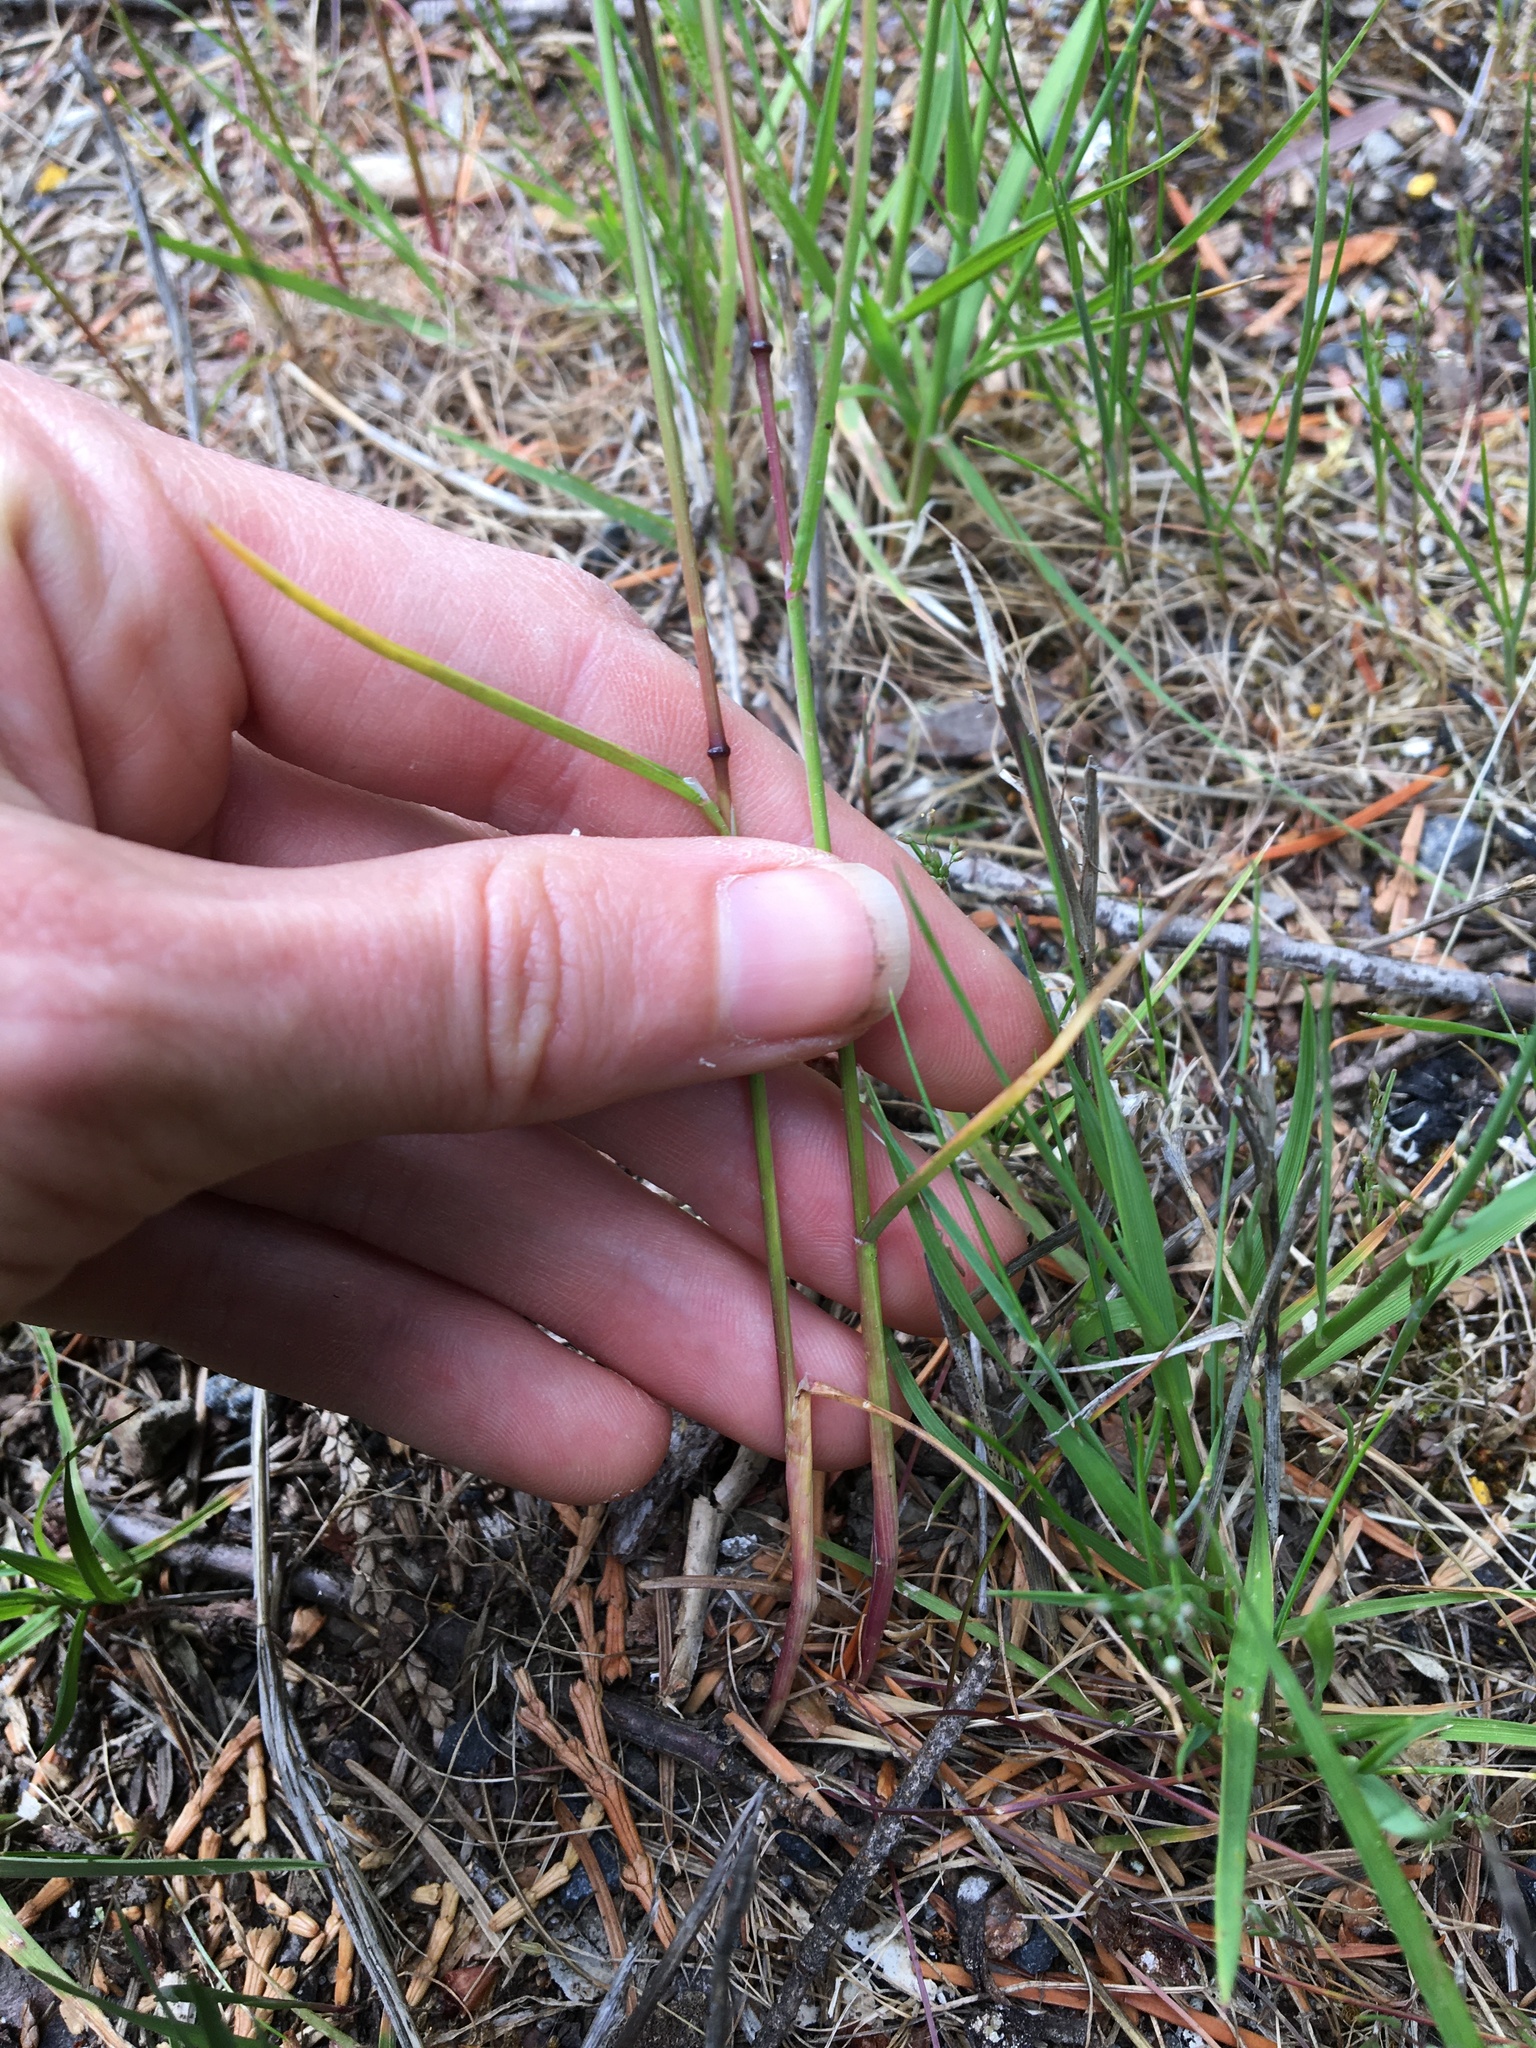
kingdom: Plantae
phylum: Tracheophyta
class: Liliopsida
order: Poales
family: Poaceae
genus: Poa
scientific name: Poa bulbosa
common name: Bulbous bluegrass
